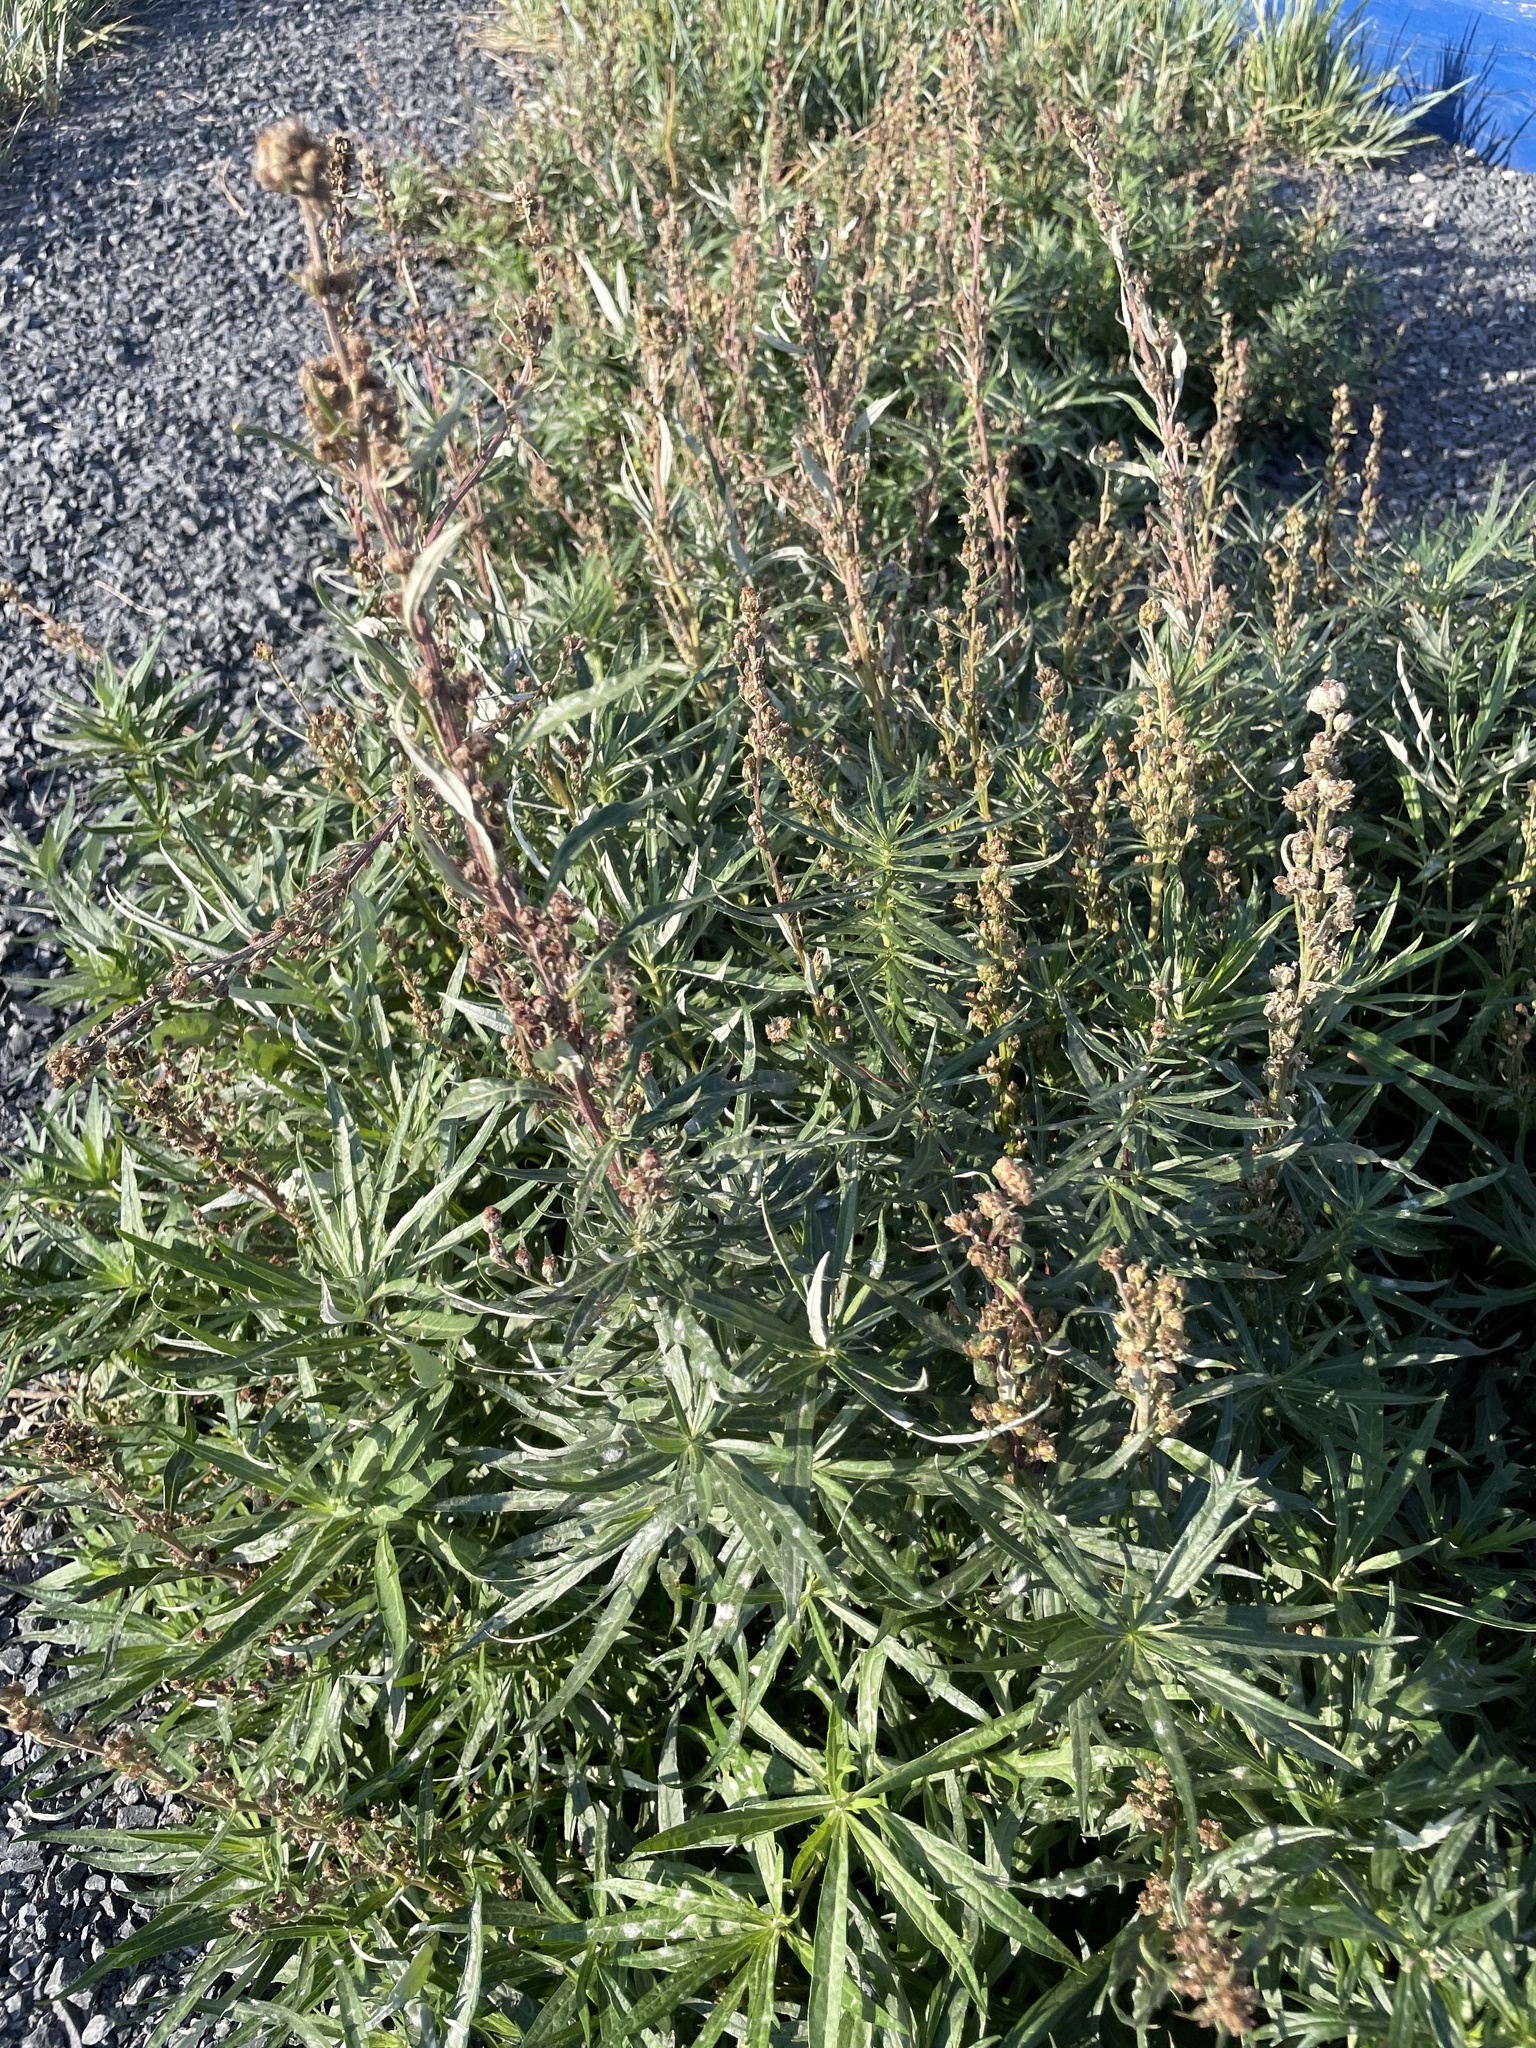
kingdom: Plantae
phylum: Tracheophyta
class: Magnoliopsida
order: Asterales
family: Asteraceae
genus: Artemisia
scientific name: Artemisia tilesii
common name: Aleutian mugwort
